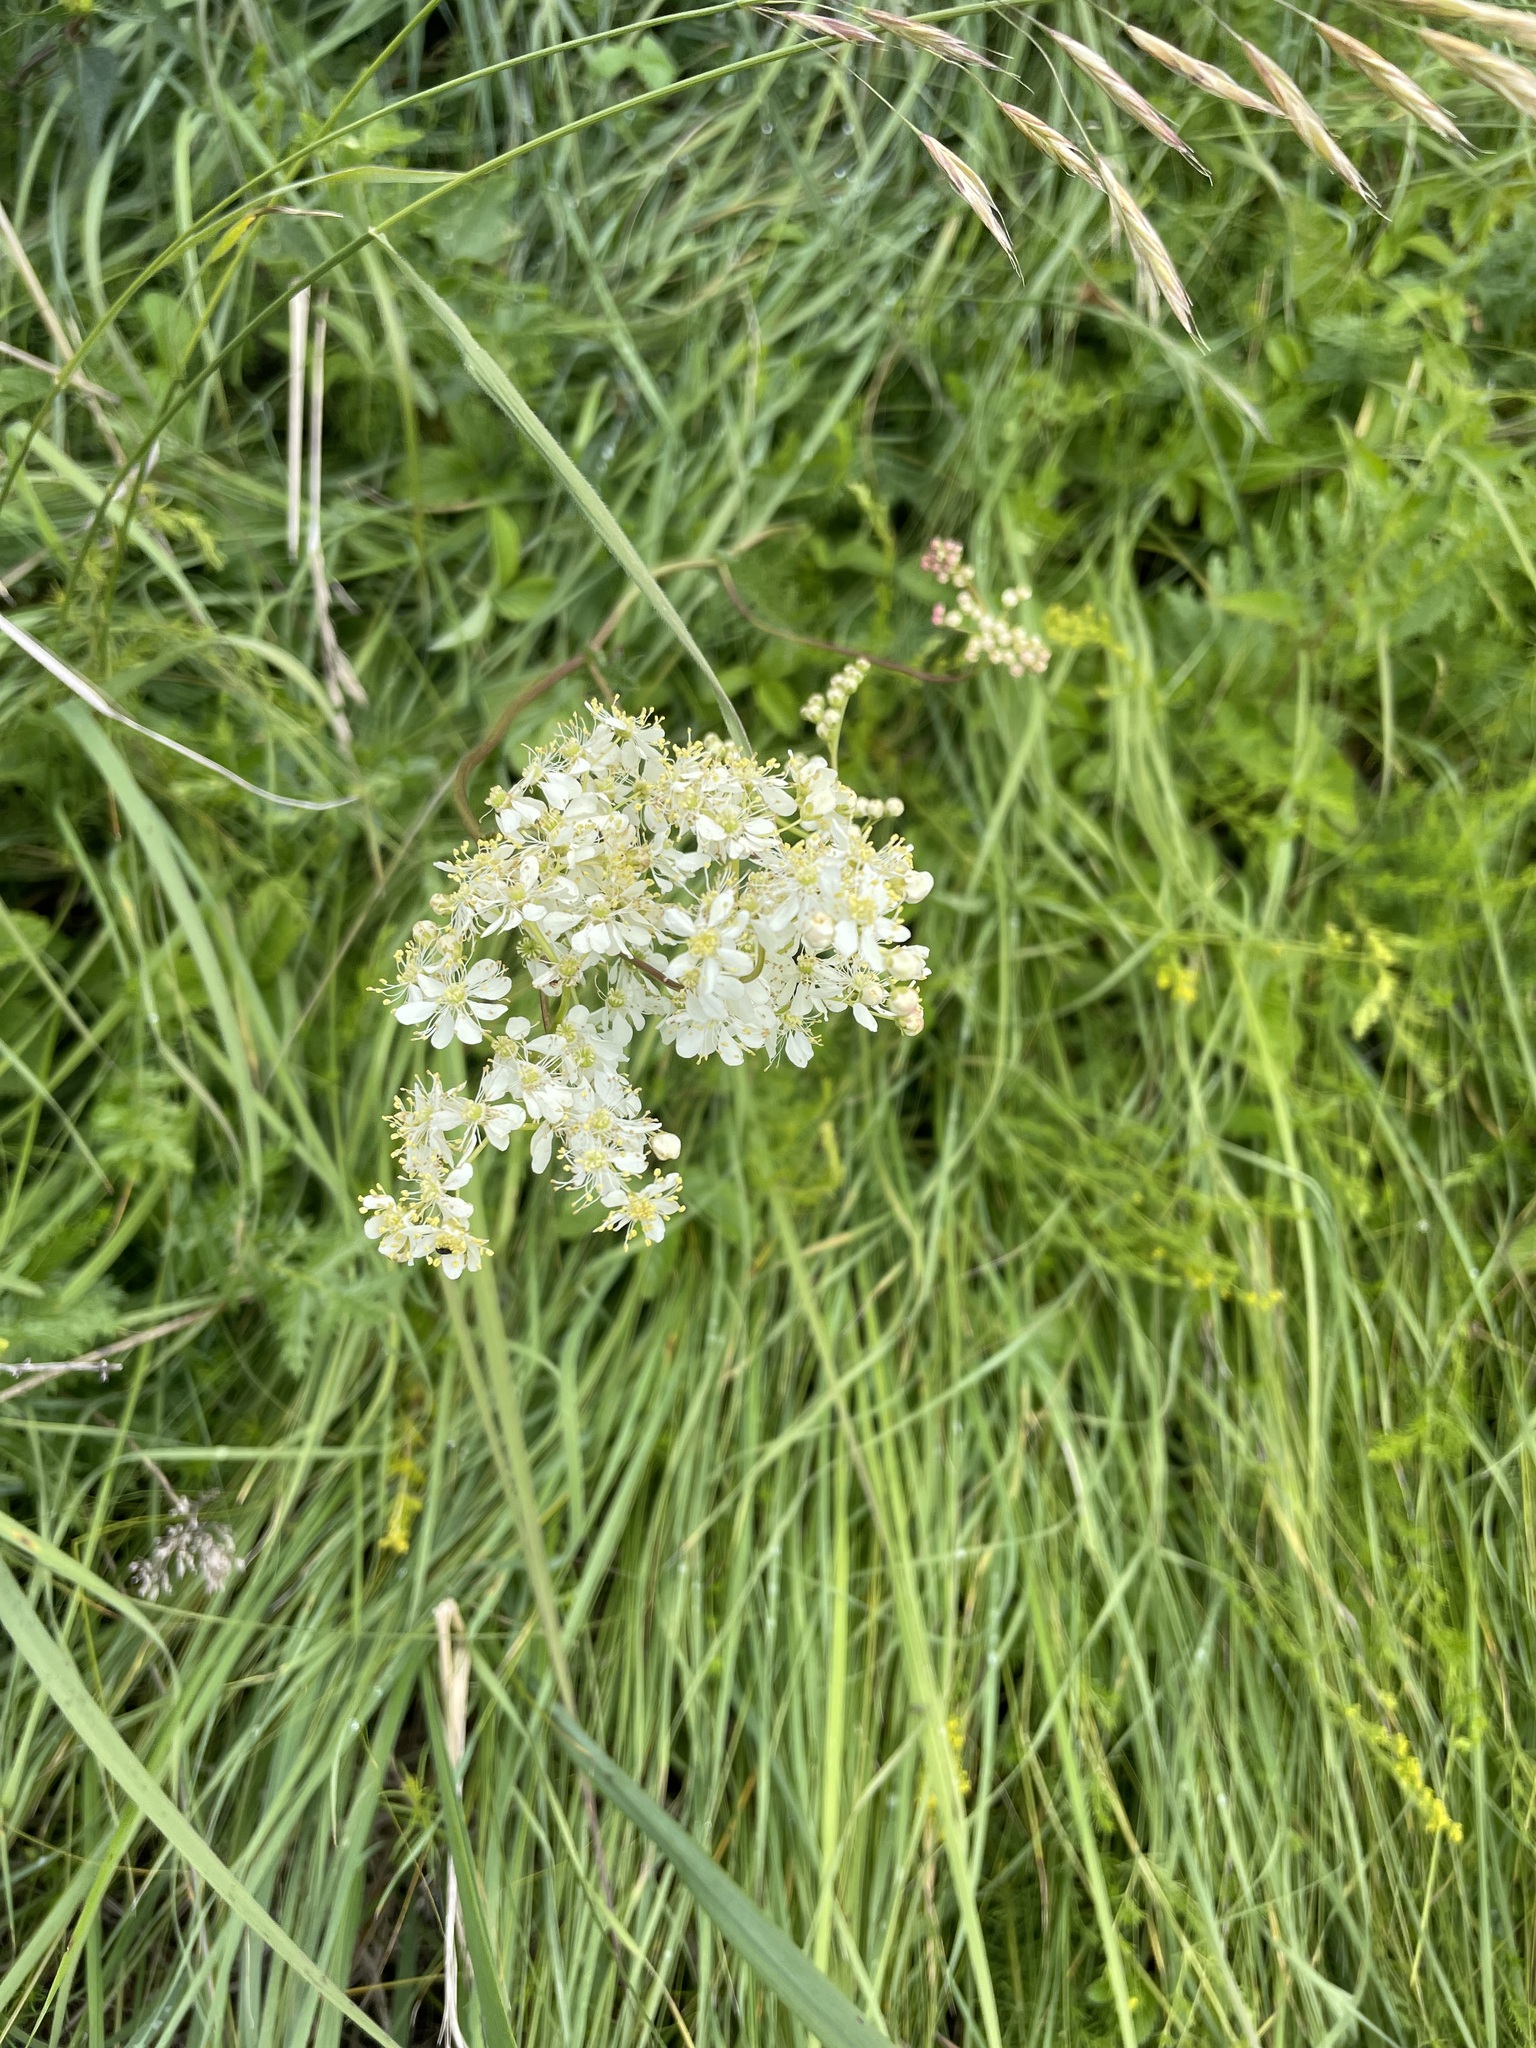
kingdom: Plantae
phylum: Tracheophyta
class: Magnoliopsida
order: Rosales
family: Rosaceae
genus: Filipendula
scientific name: Filipendula vulgaris
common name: Dropwort
